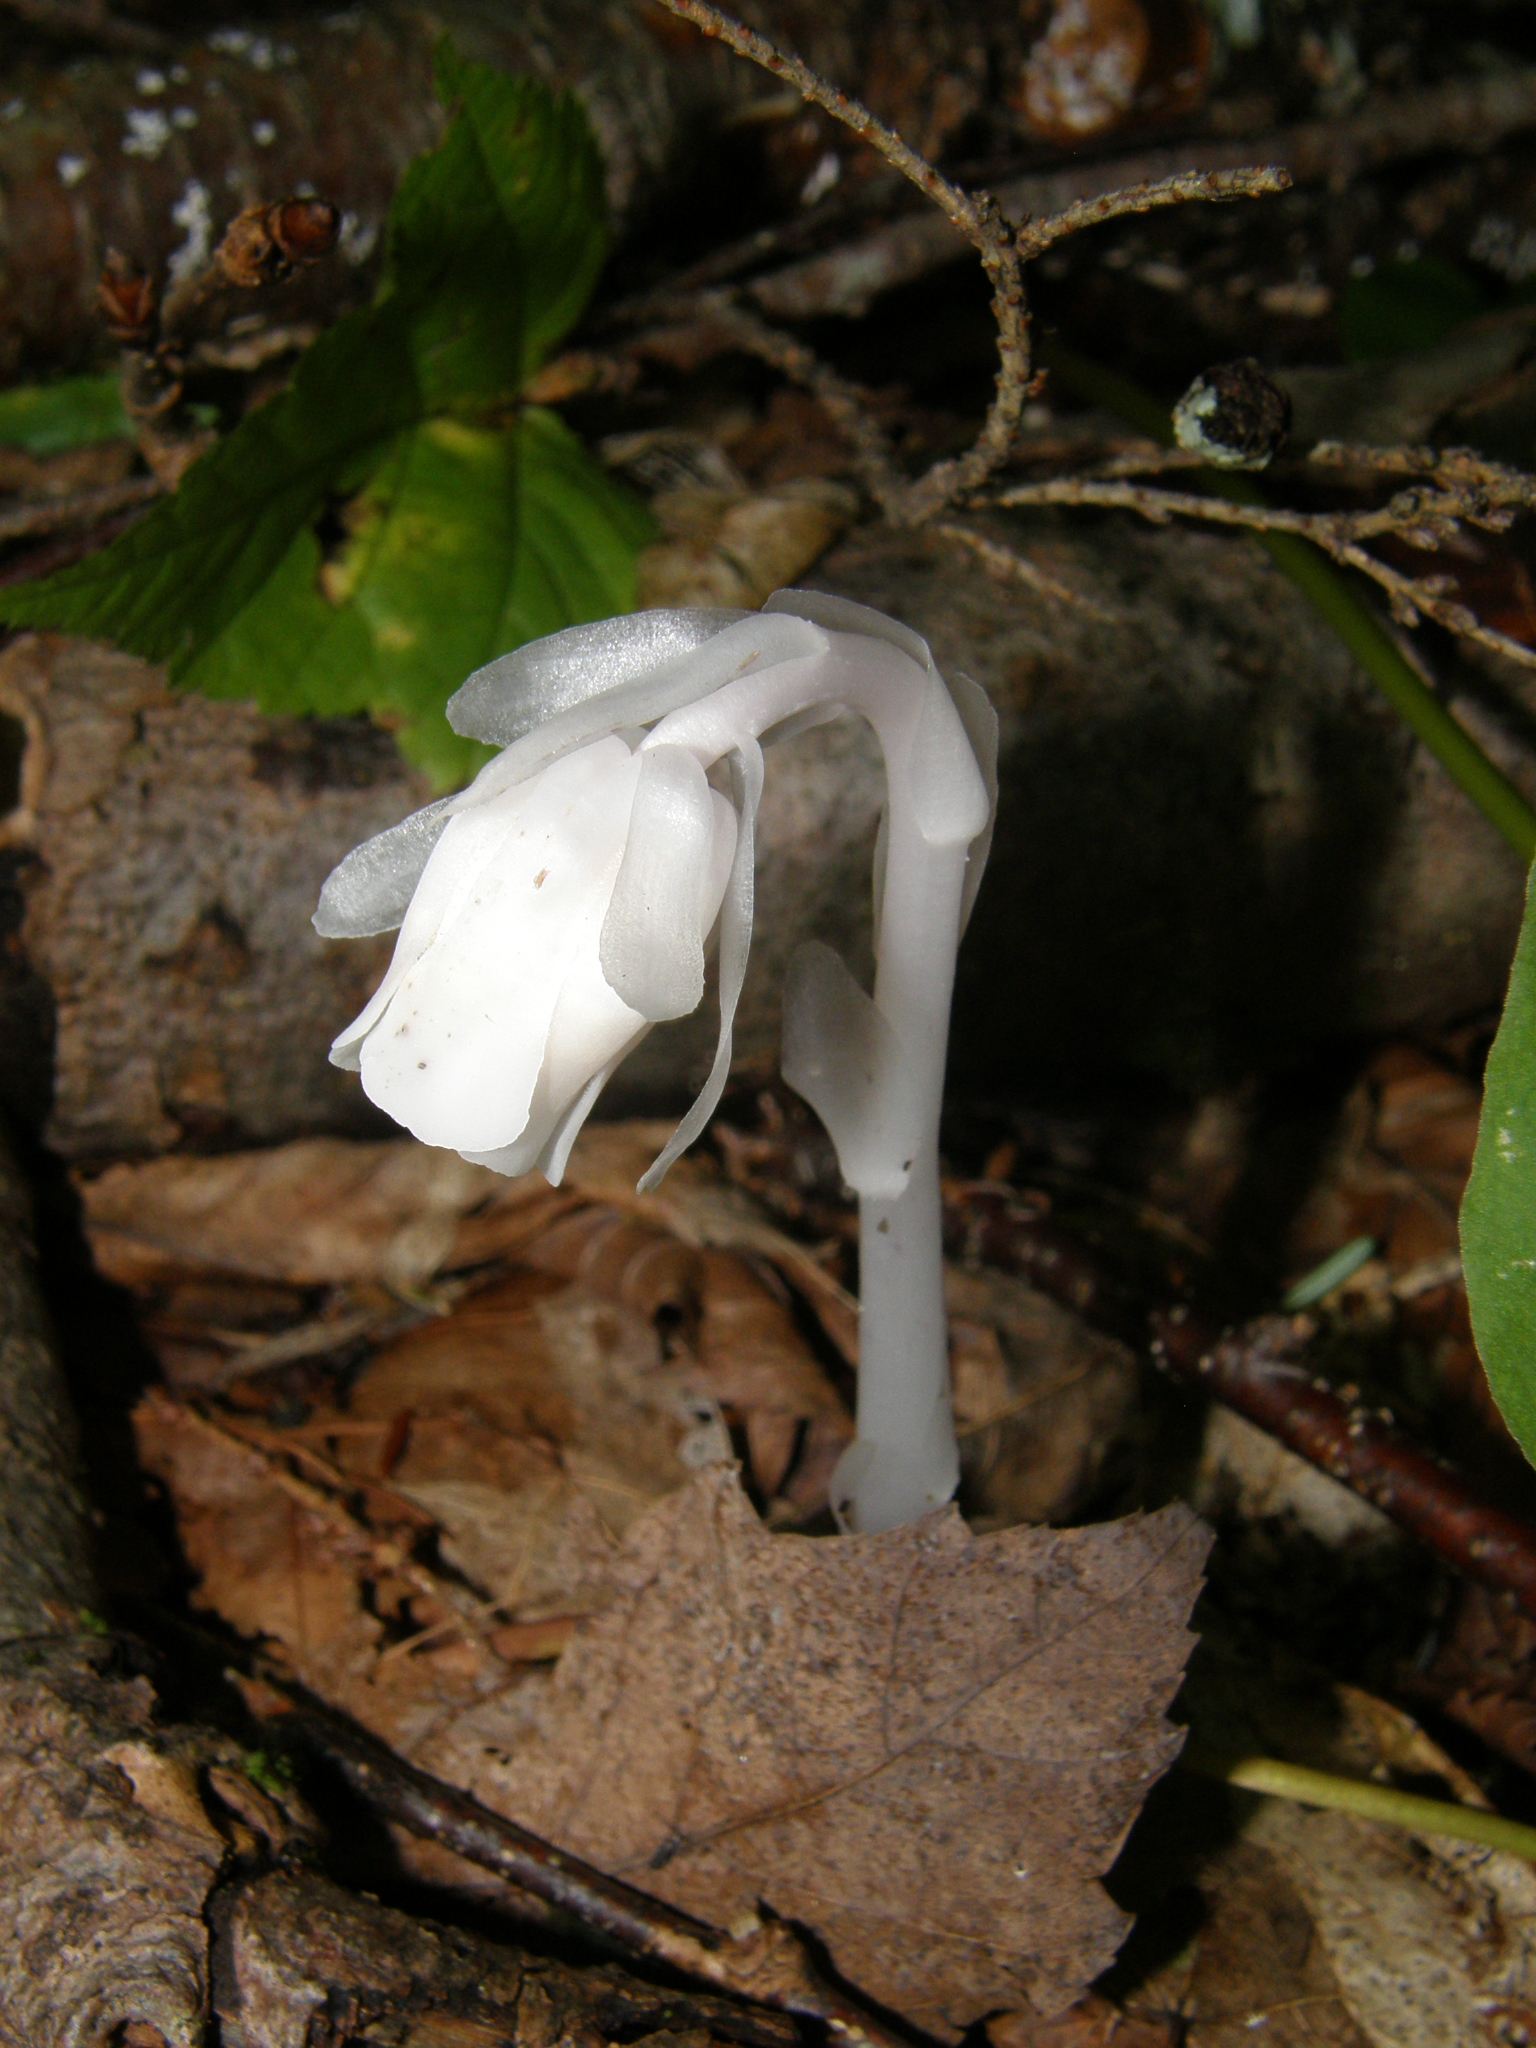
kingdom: Plantae
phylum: Tracheophyta
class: Magnoliopsida
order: Ericales
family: Ericaceae
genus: Monotropa
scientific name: Monotropa uniflora
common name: Convulsion root
